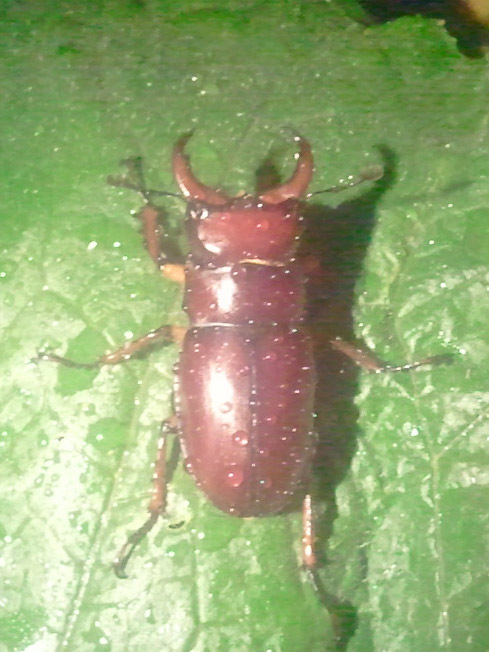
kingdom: Animalia
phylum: Arthropoda
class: Insecta
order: Coleoptera
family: Lucanidae
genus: Lucanus
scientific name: Lucanus capreolus
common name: Stag beetle
